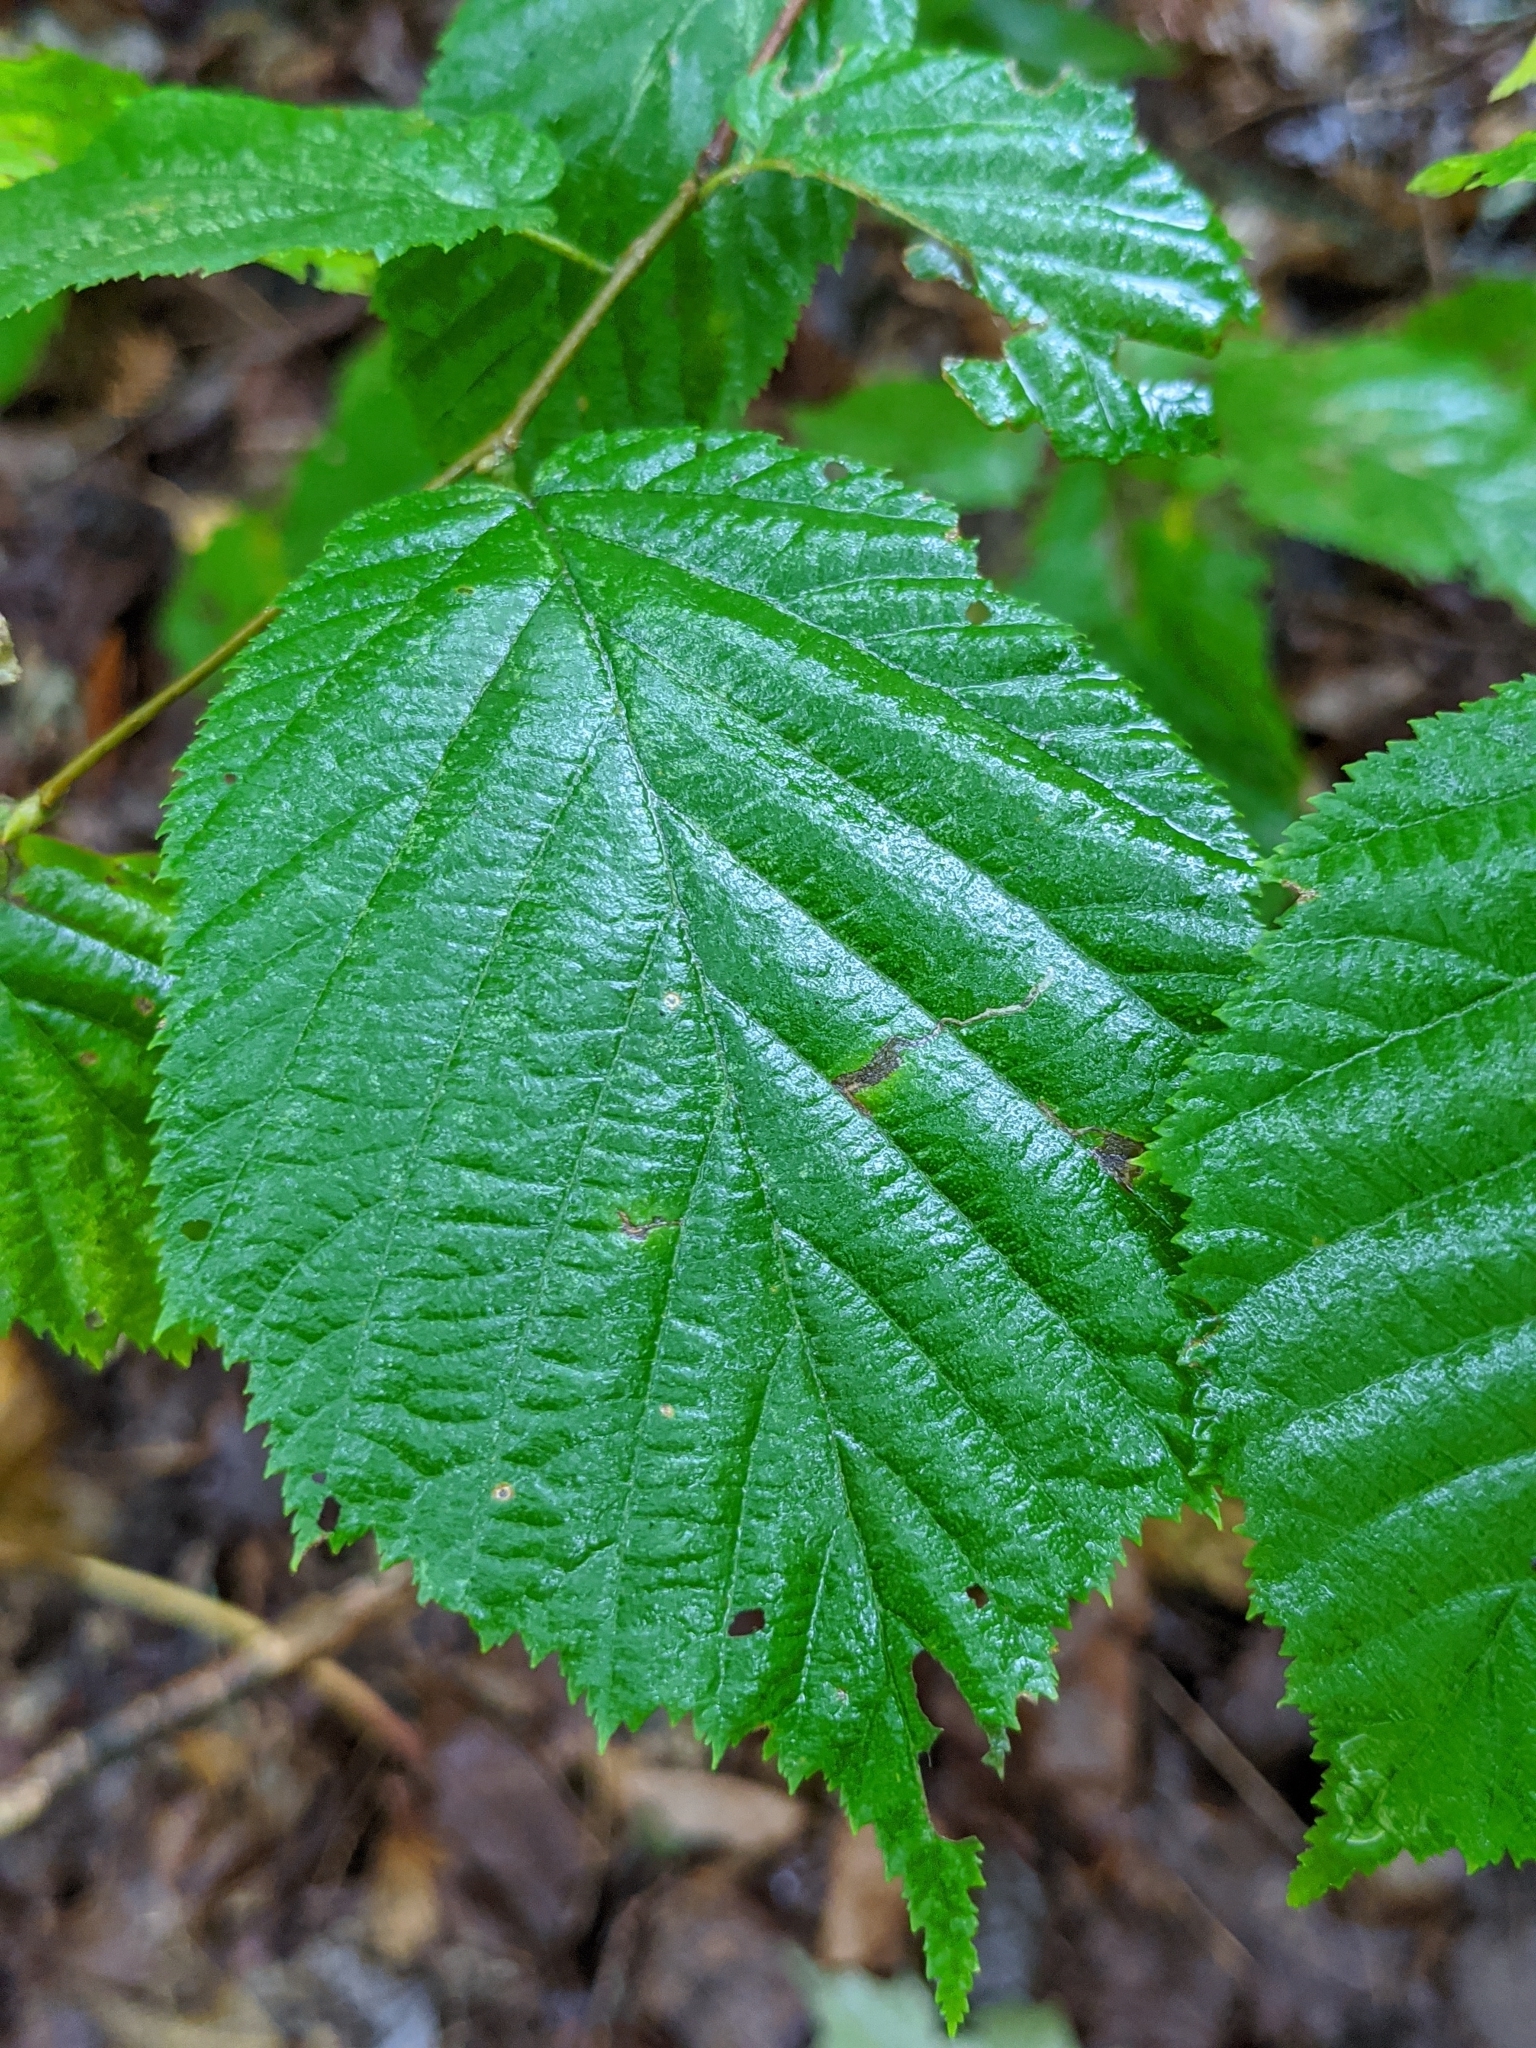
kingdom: Plantae
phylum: Tracheophyta
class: Magnoliopsida
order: Fagales
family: Betulaceae
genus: Corylus
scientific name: Corylus cornuta
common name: Beaked hazel
